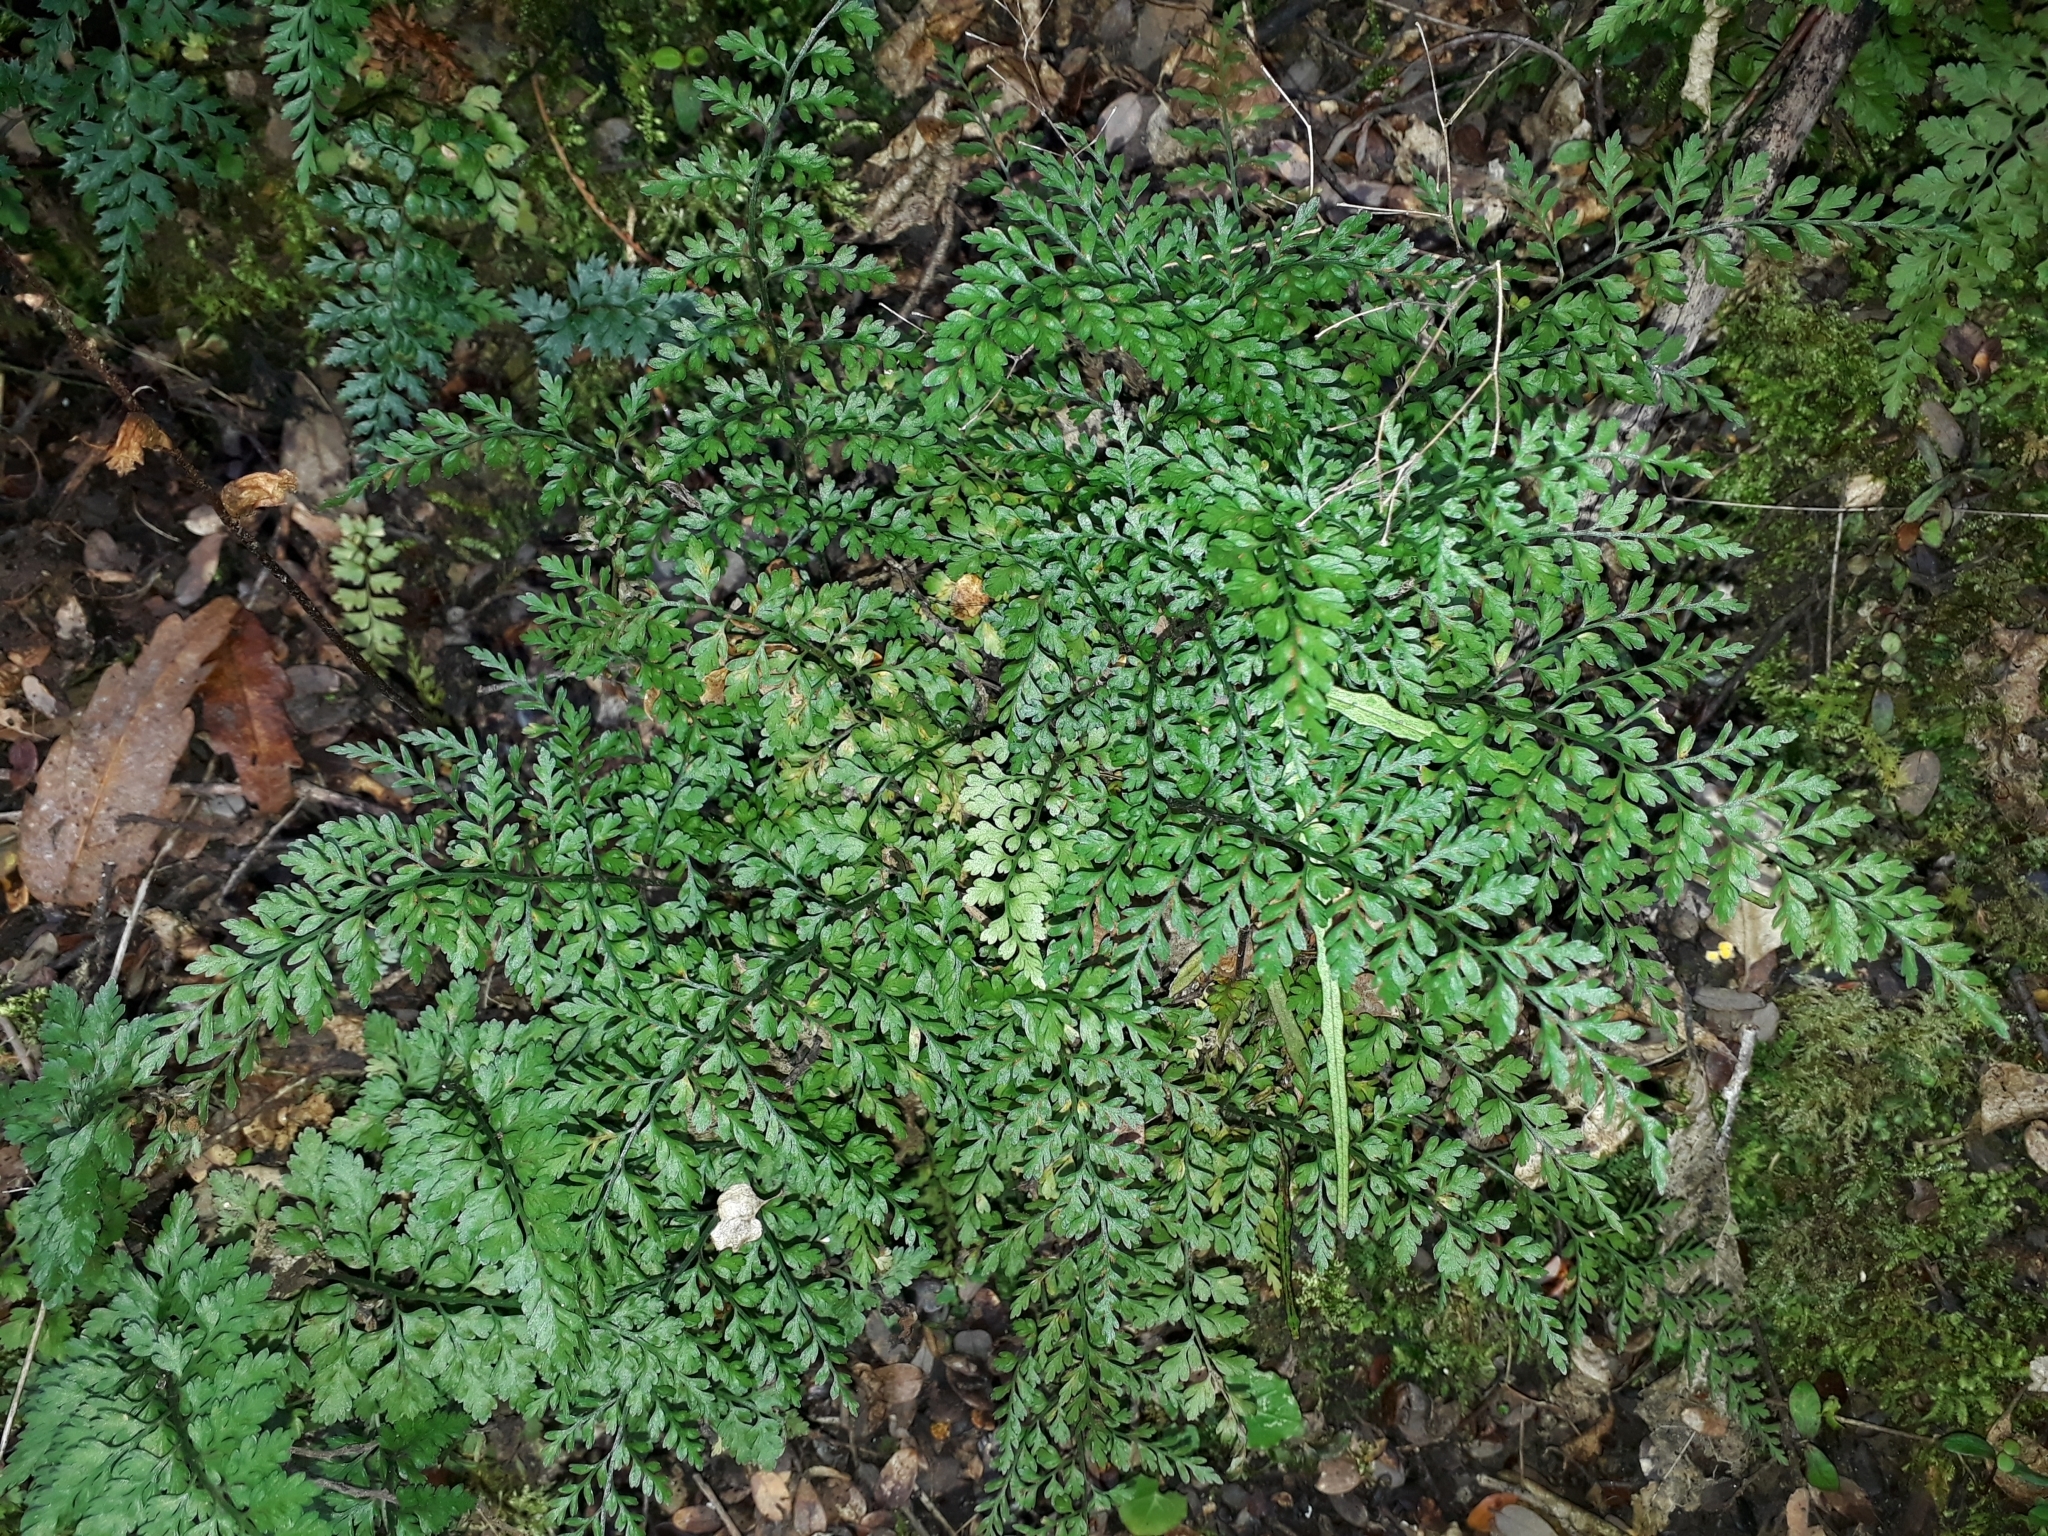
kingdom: Plantae
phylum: Tracheophyta
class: Polypodiopsida
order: Polypodiales
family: Aspleniaceae
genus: Asplenium
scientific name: Asplenium hookerianum
